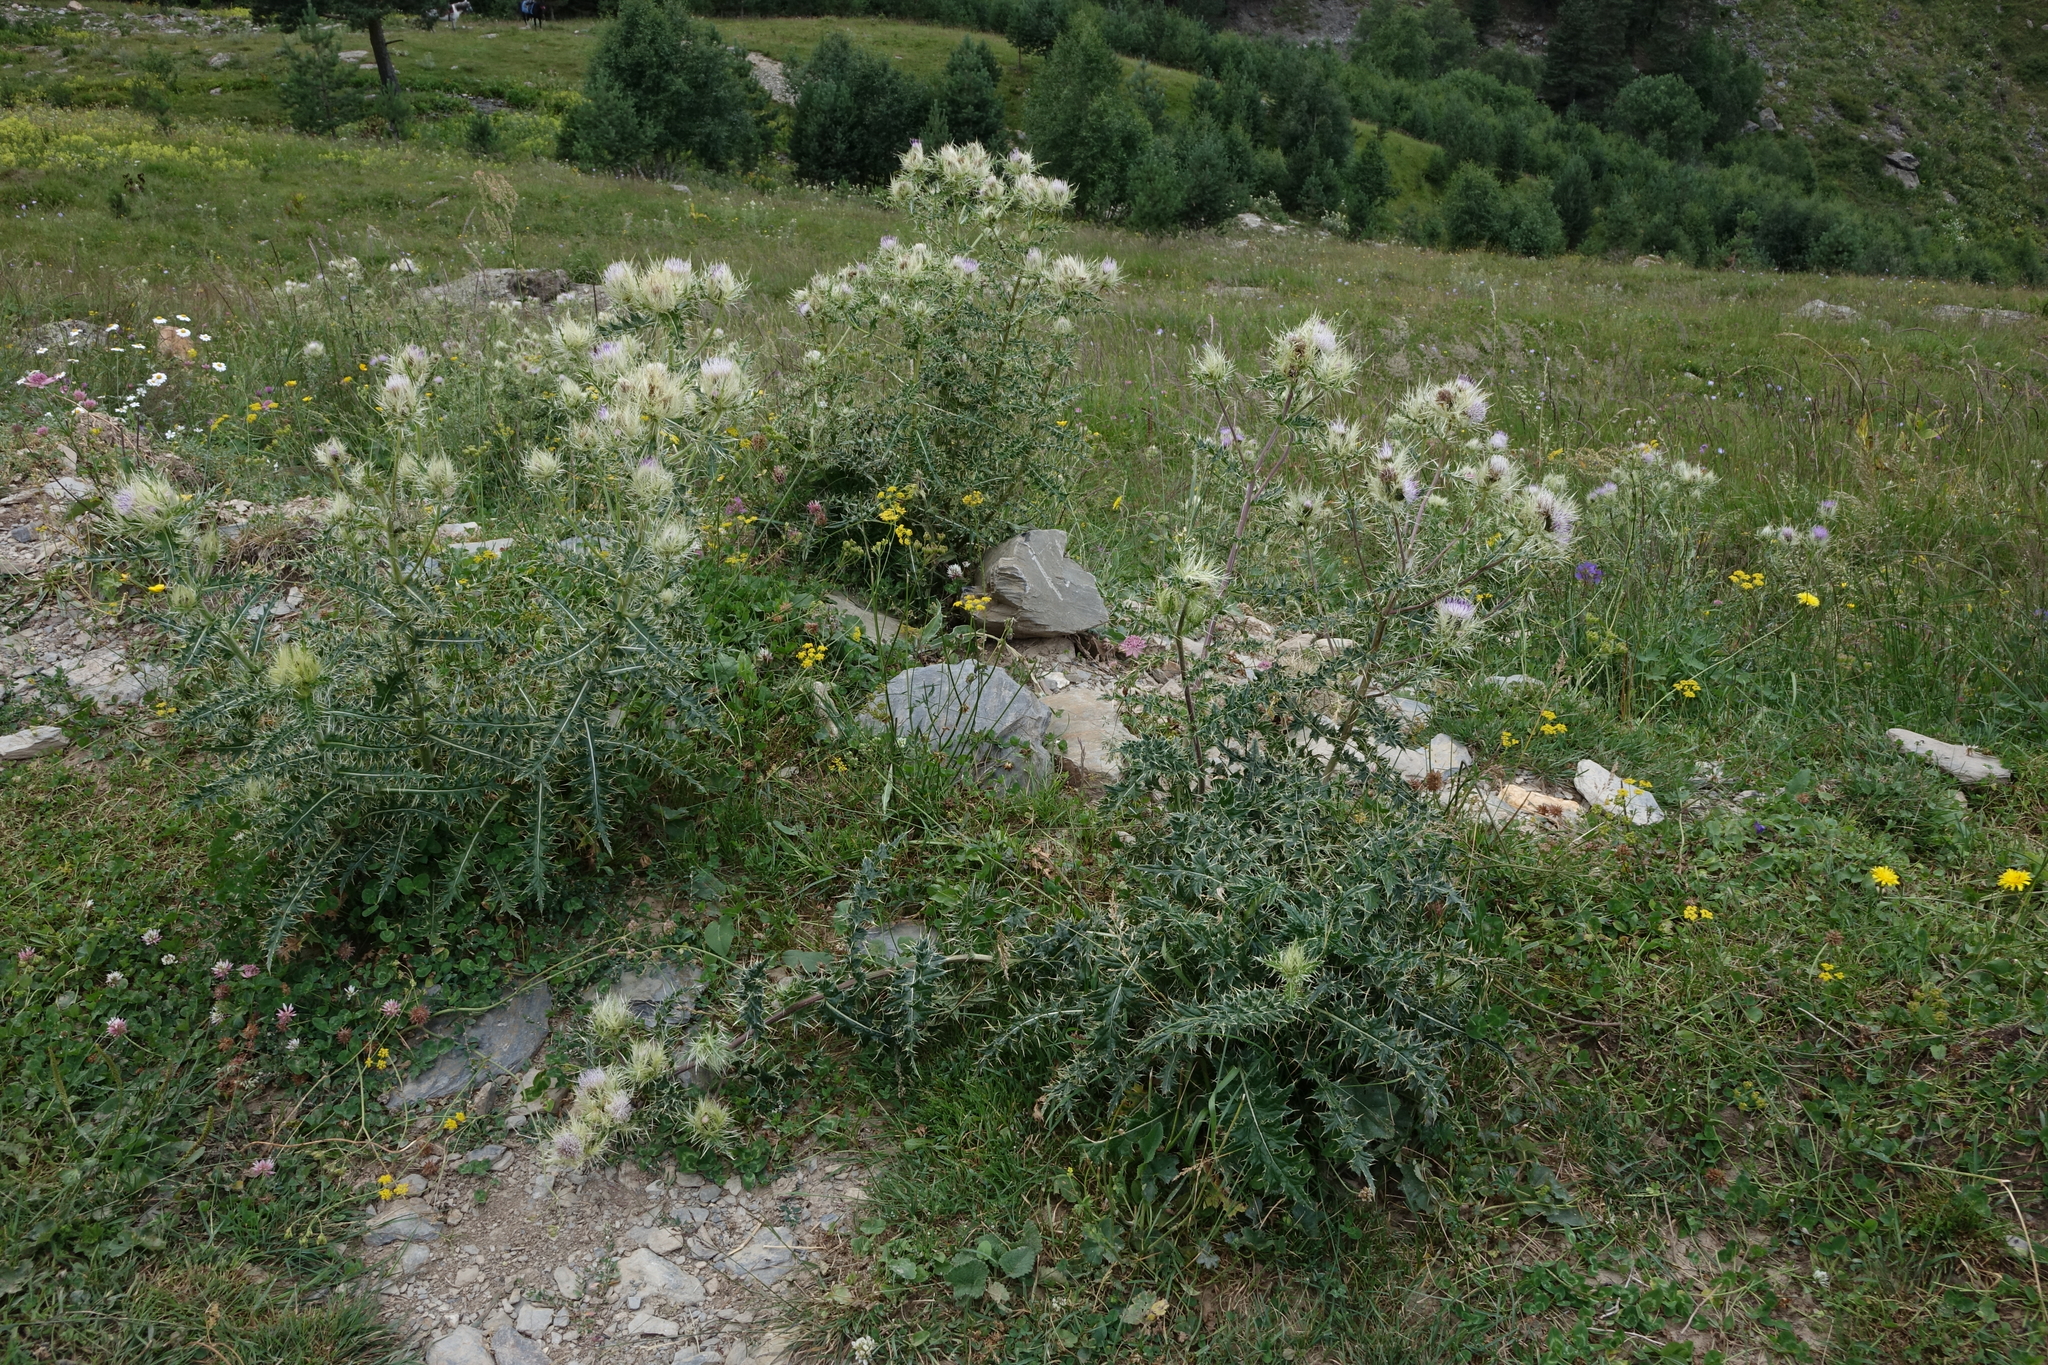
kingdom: Plantae
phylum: Tracheophyta
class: Magnoliopsida
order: Asterales
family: Asteraceae
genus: Cirsium
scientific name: Cirsium obvallatum
